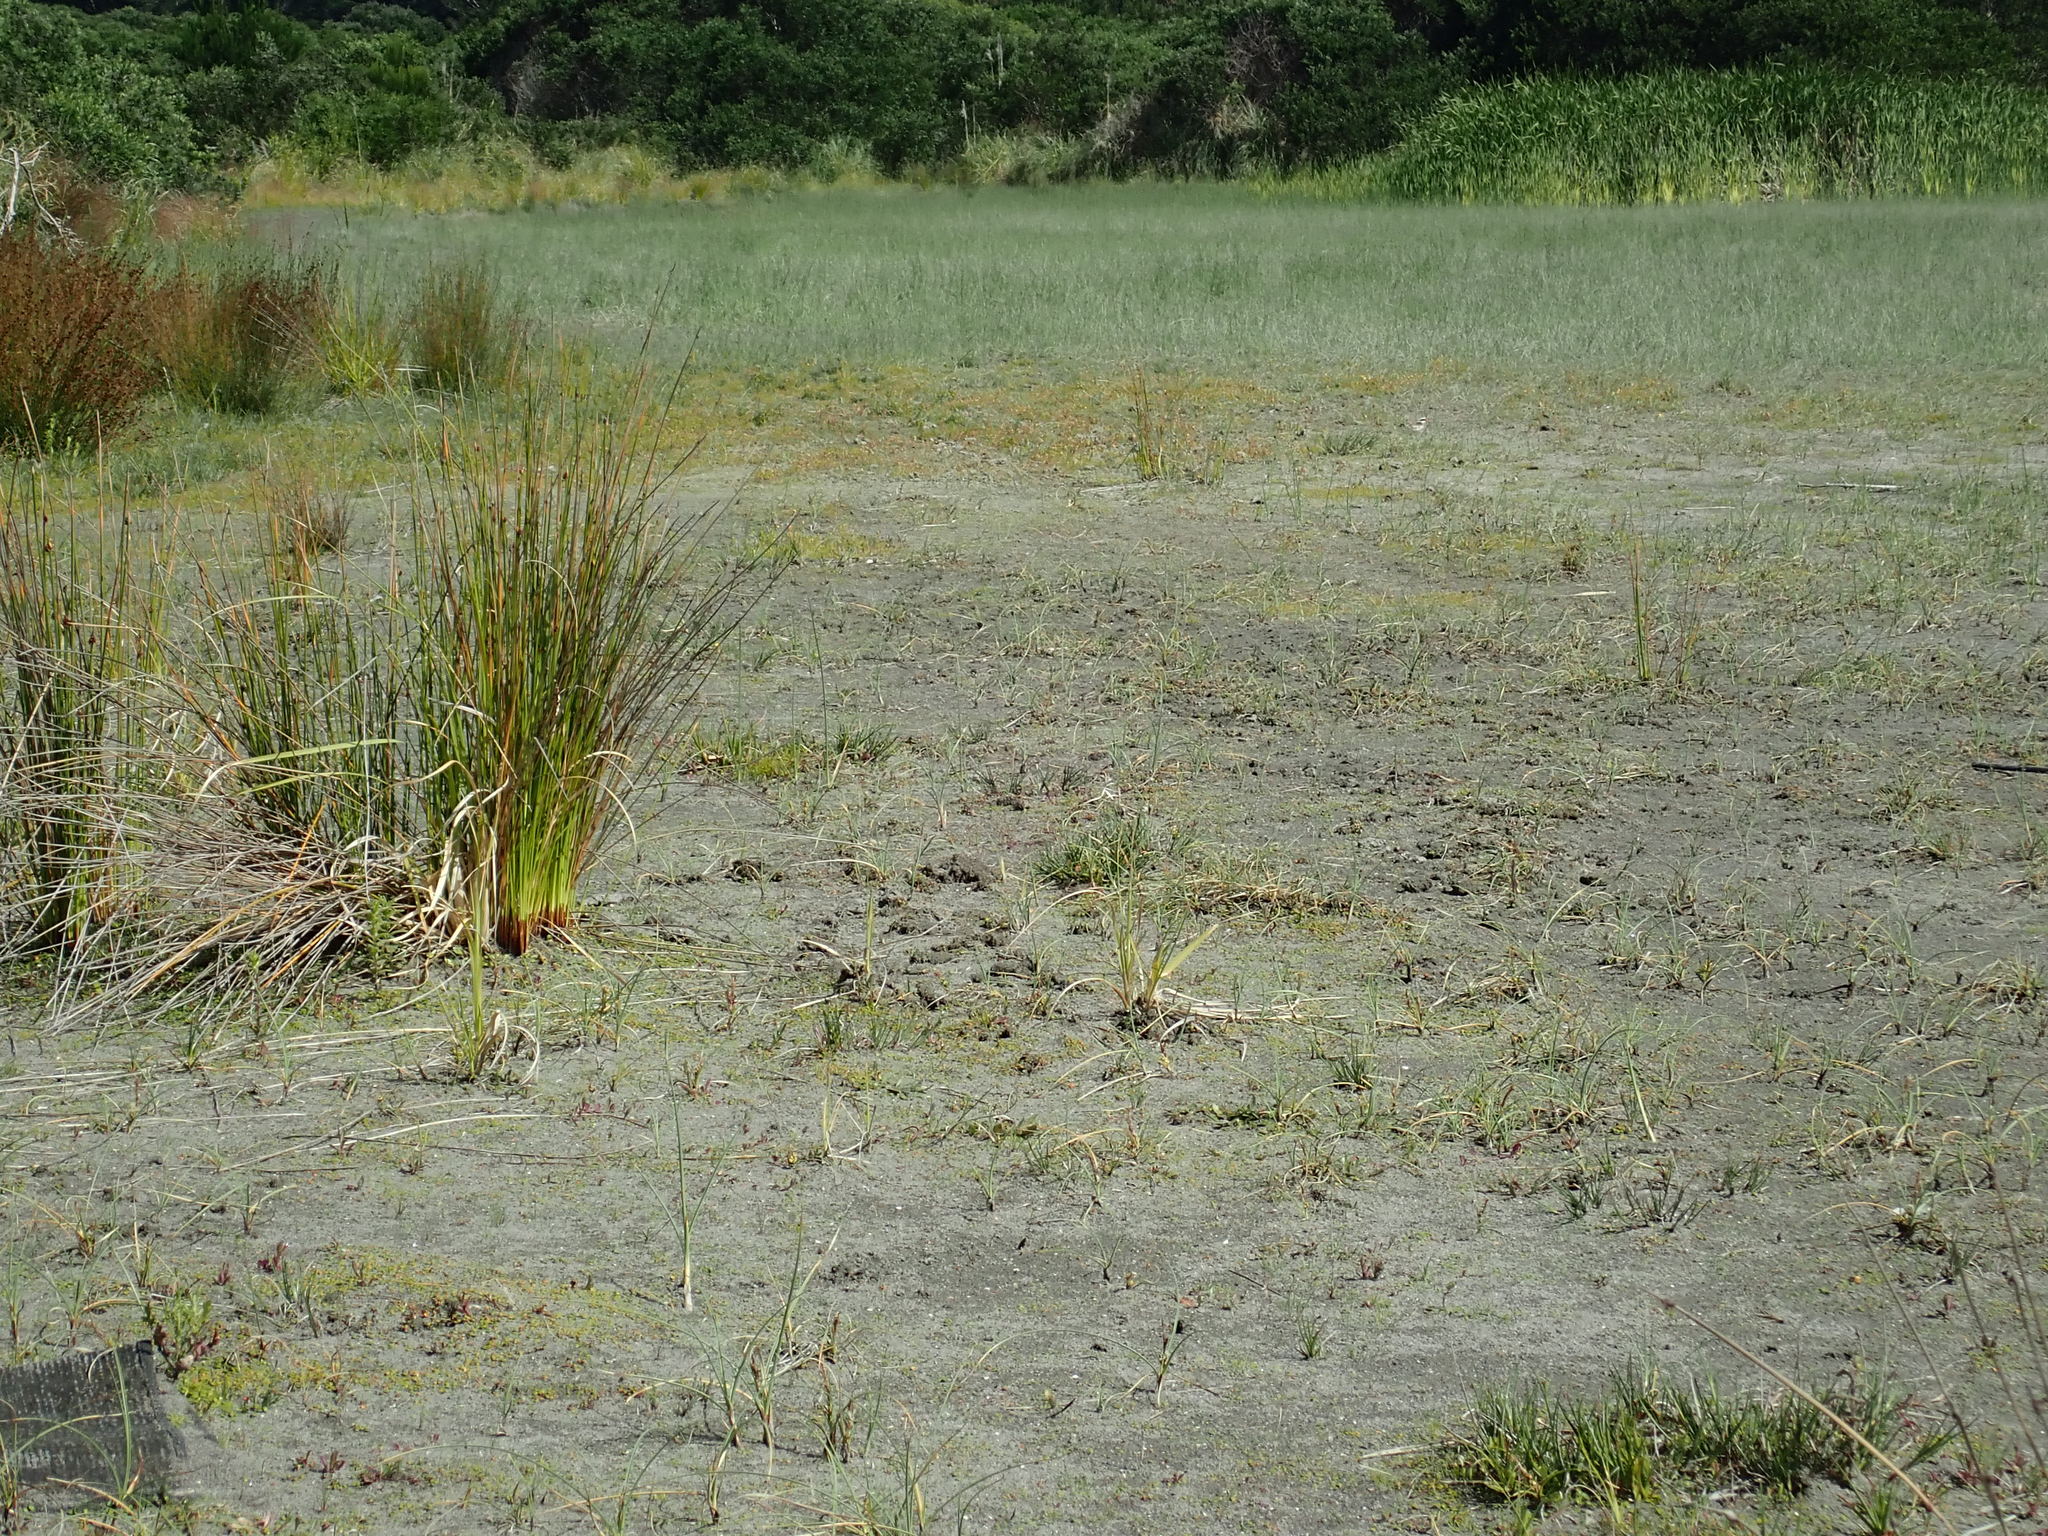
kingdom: Animalia
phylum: Chordata
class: Aves
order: Charadriiformes
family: Charadriidae
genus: Elseyornis
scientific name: Elseyornis melanops
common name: Black-fronted dotterel
